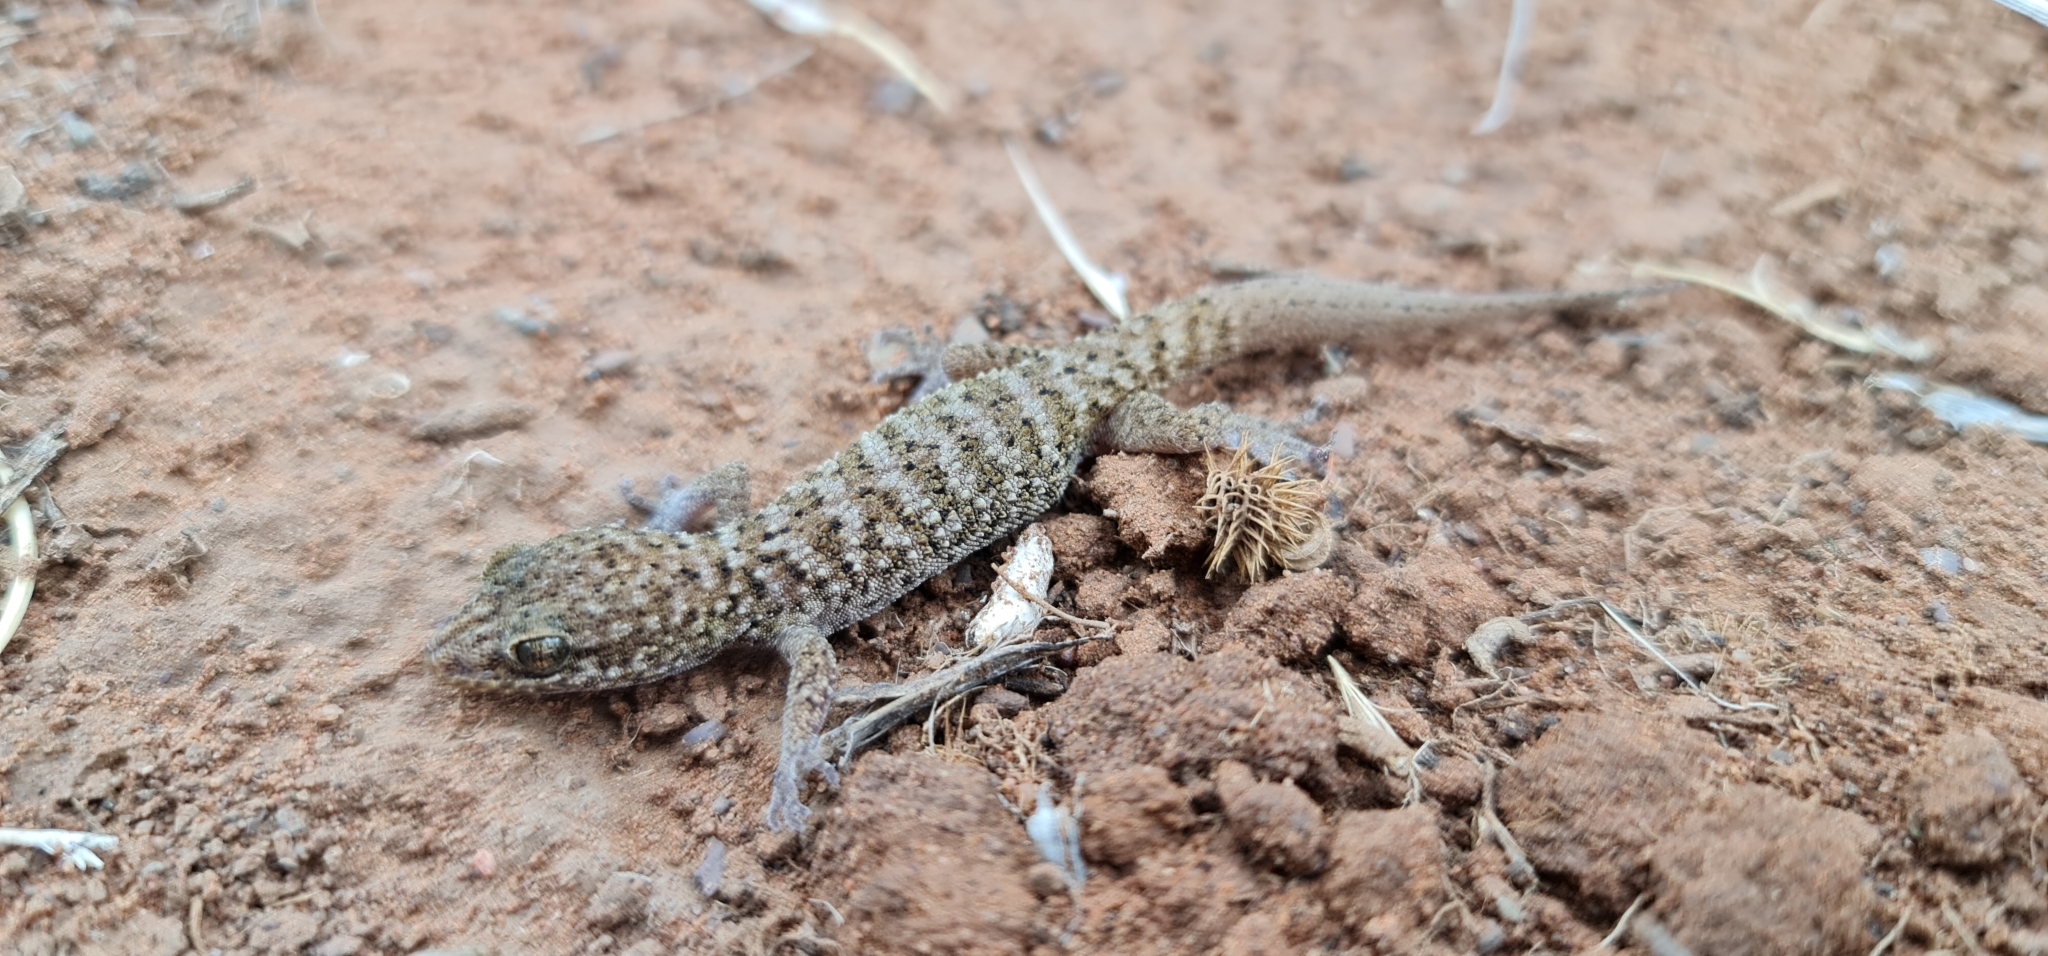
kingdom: Animalia
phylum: Chordata
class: Squamata
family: Gekkonidae
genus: Heteronotia
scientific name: Heteronotia binoei
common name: Bynoe's gecko
